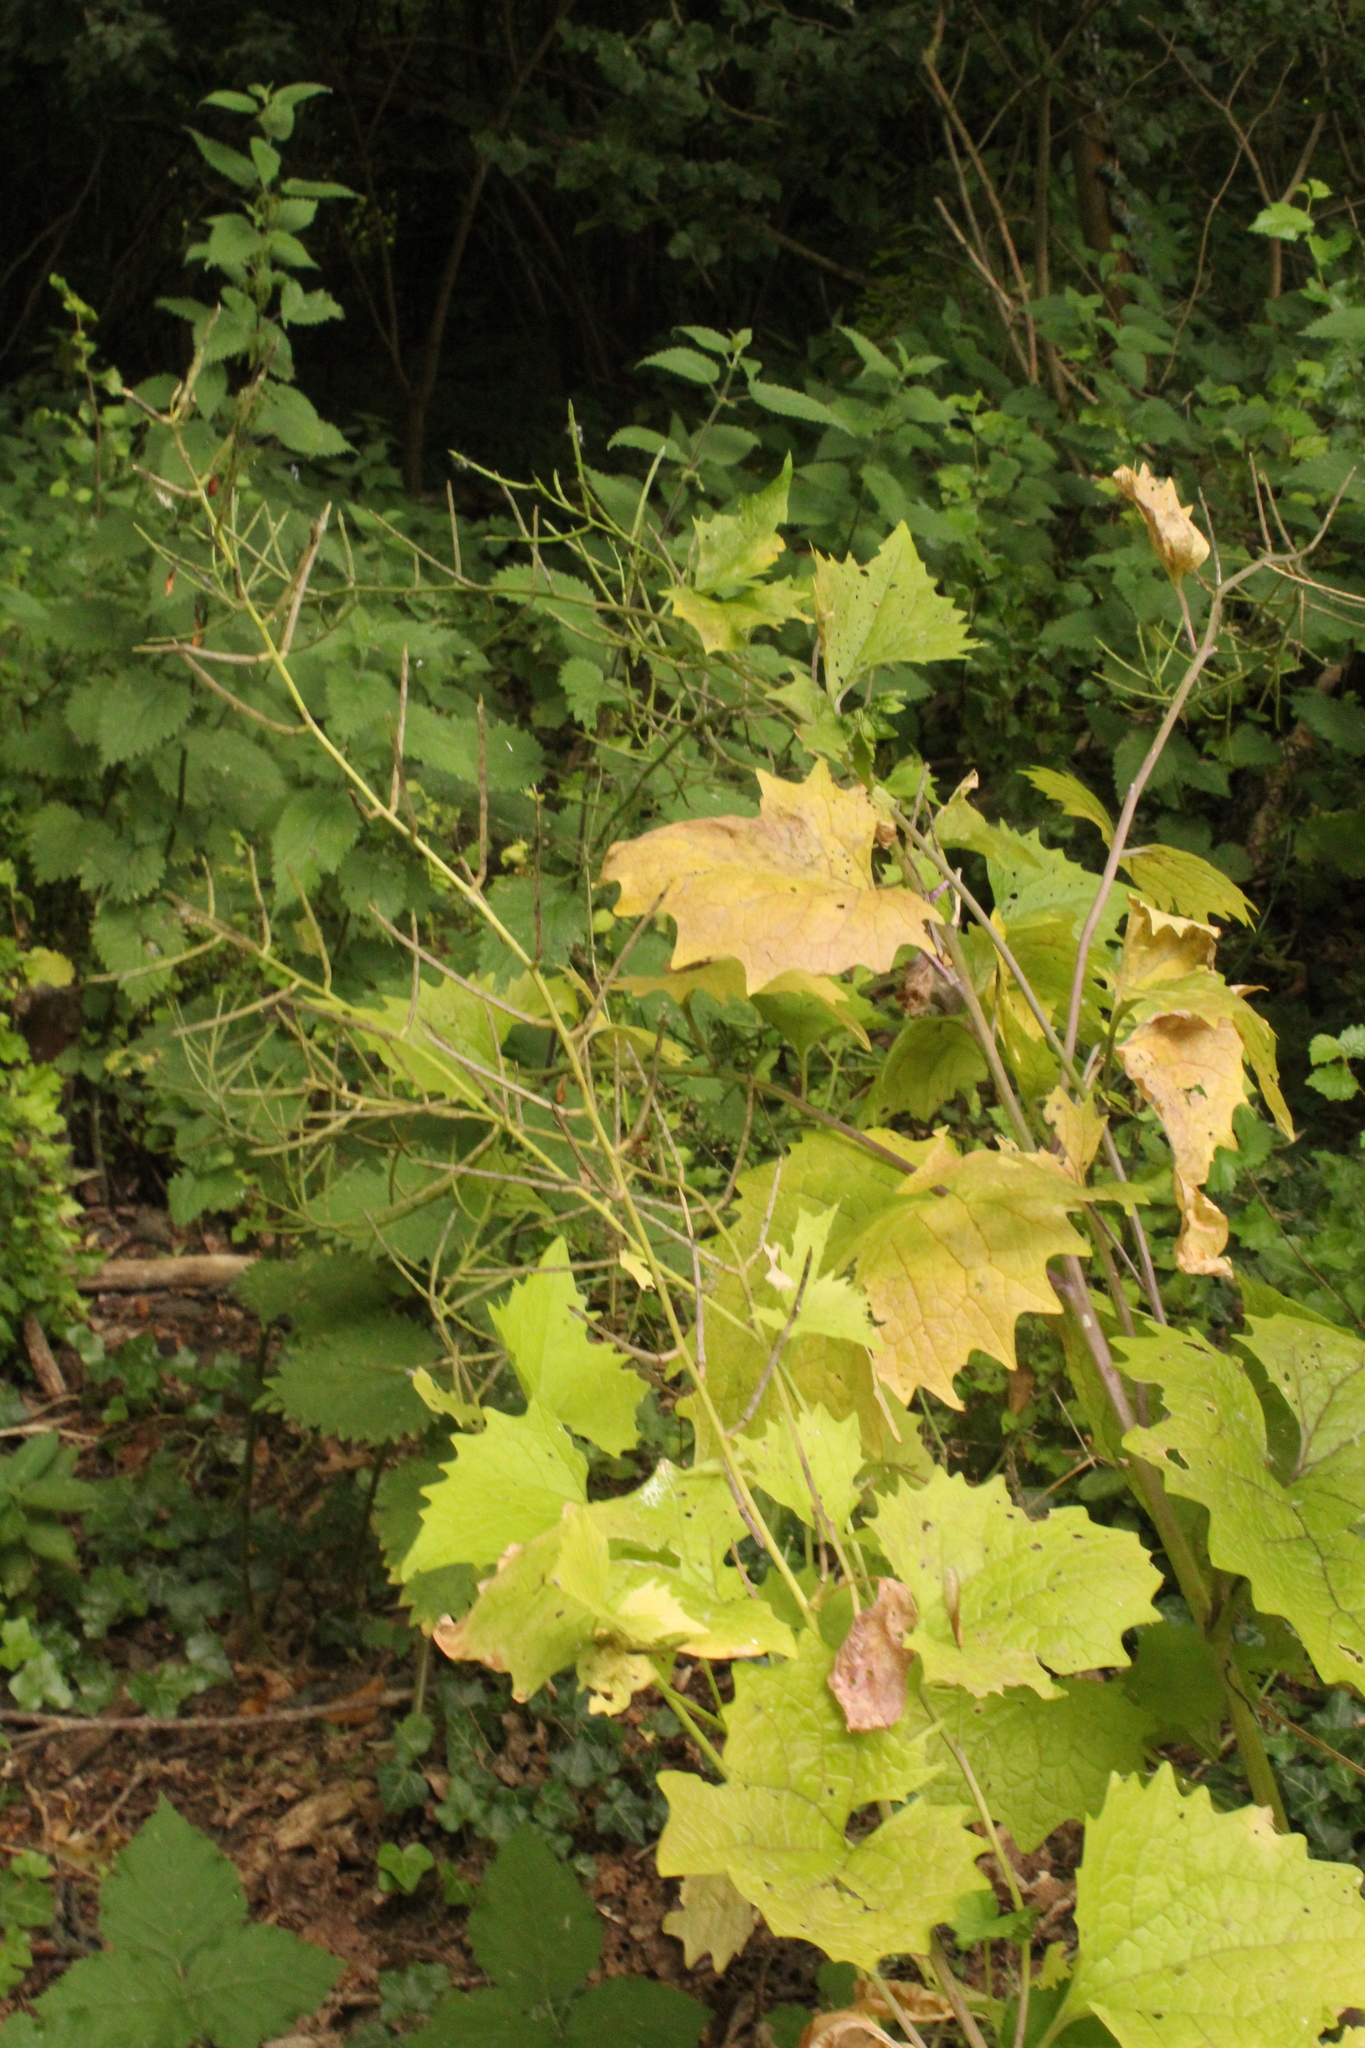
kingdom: Plantae
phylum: Tracheophyta
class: Magnoliopsida
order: Brassicales
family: Brassicaceae
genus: Alliaria
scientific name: Alliaria petiolata
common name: Garlic mustard
